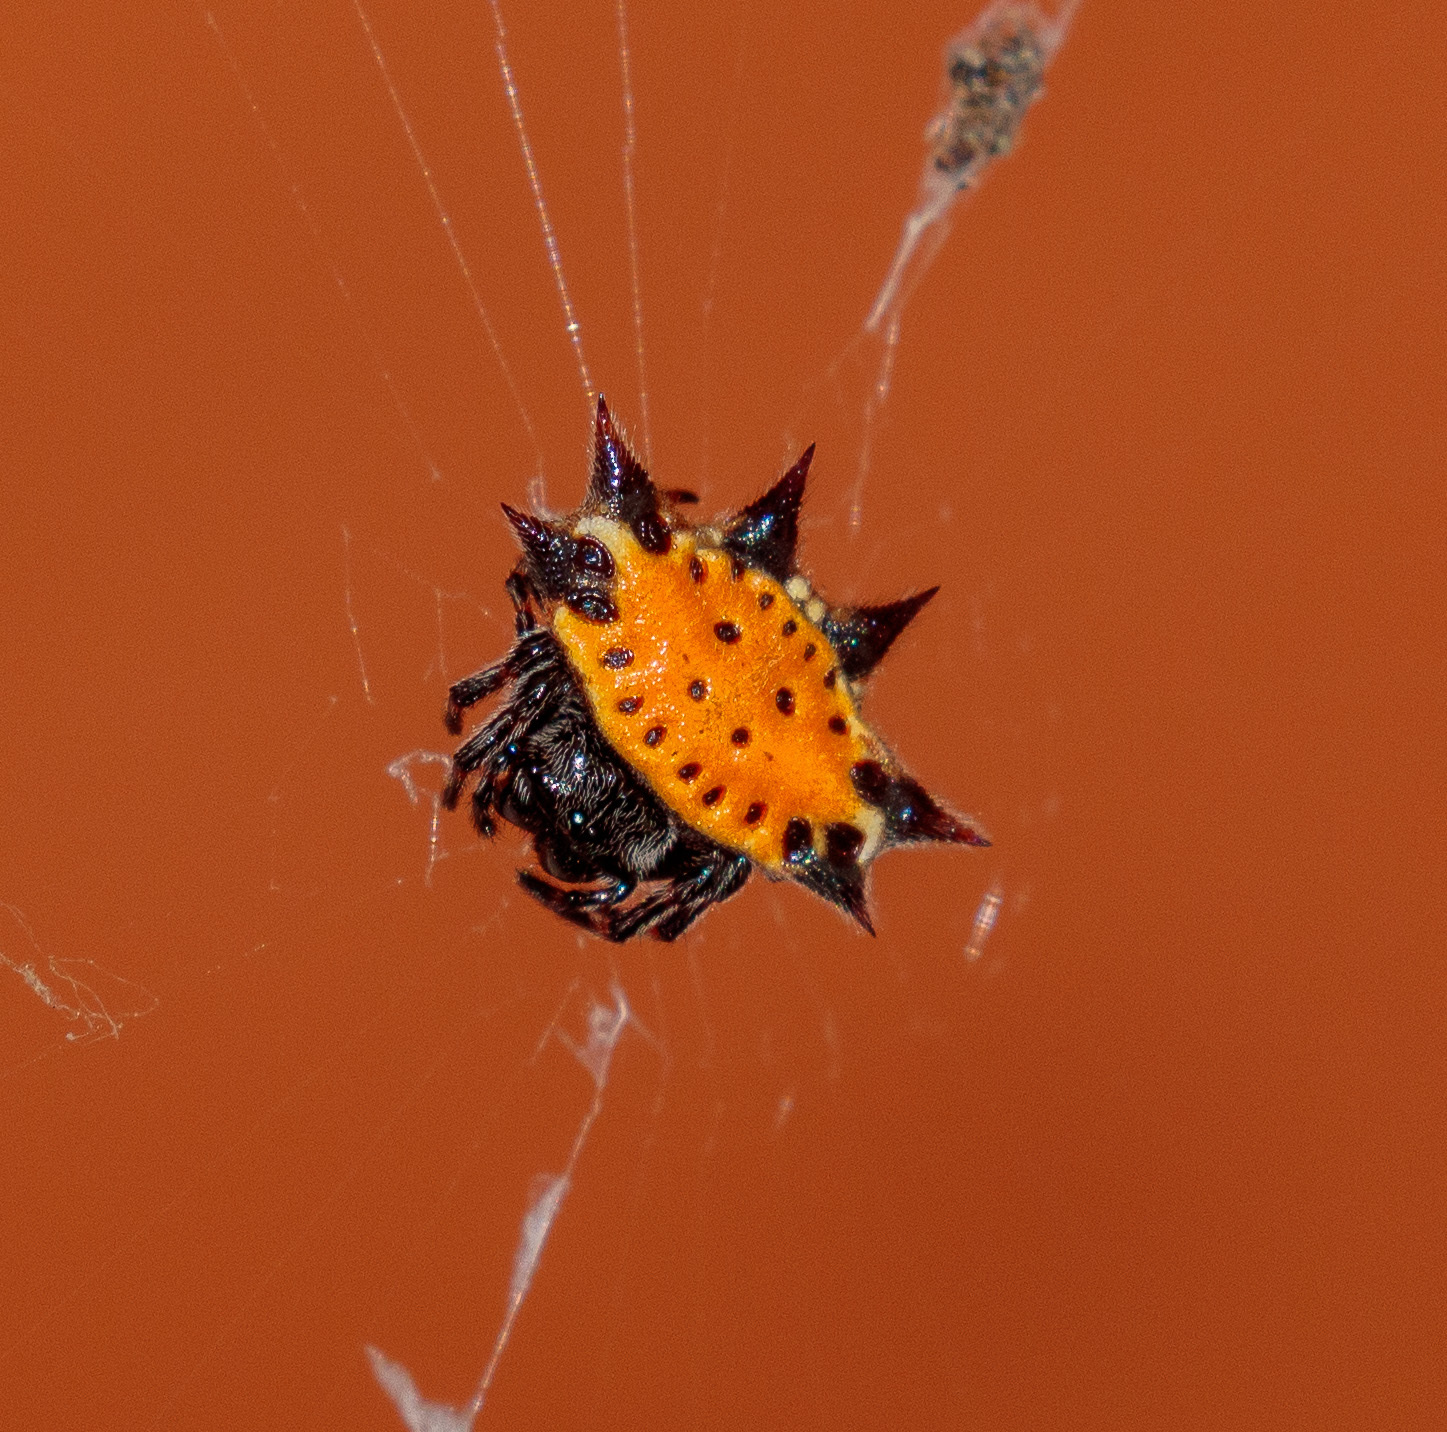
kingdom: Animalia
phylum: Arthropoda
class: Arachnida
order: Araneae
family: Araneidae
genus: Gasteracantha
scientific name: Gasteracantha cancriformis
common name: Orb weavers
